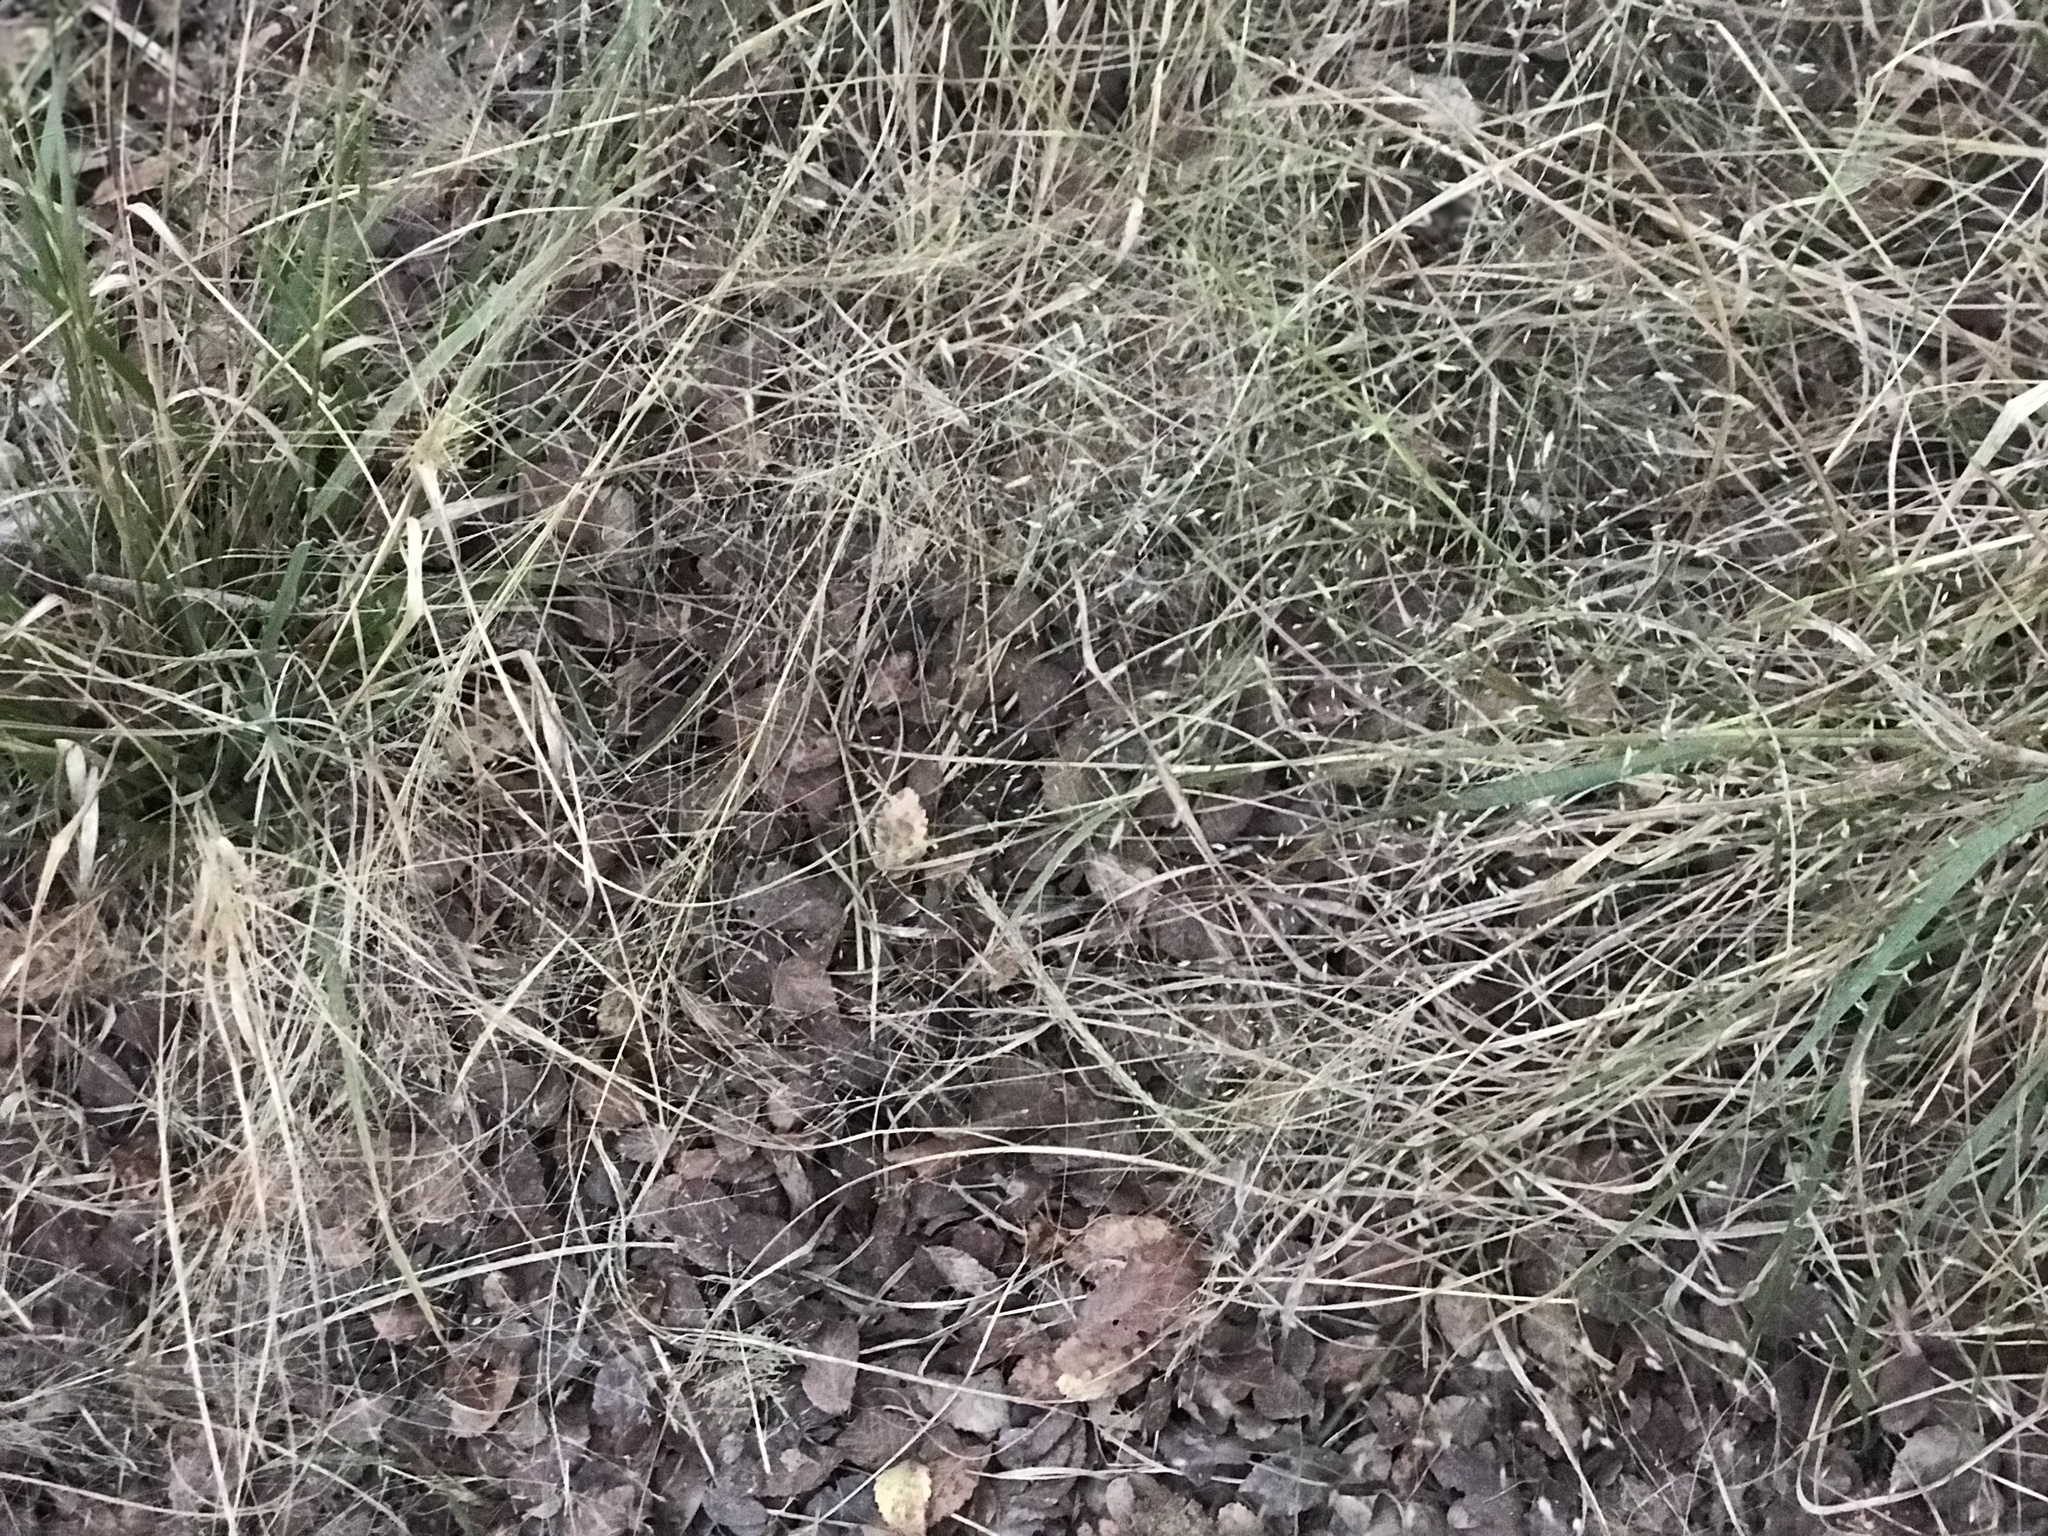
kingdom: Plantae
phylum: Tracheophyta
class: Liliopsida
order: Poales
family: Poaceae
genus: Eragrostis
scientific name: Eragrostis
